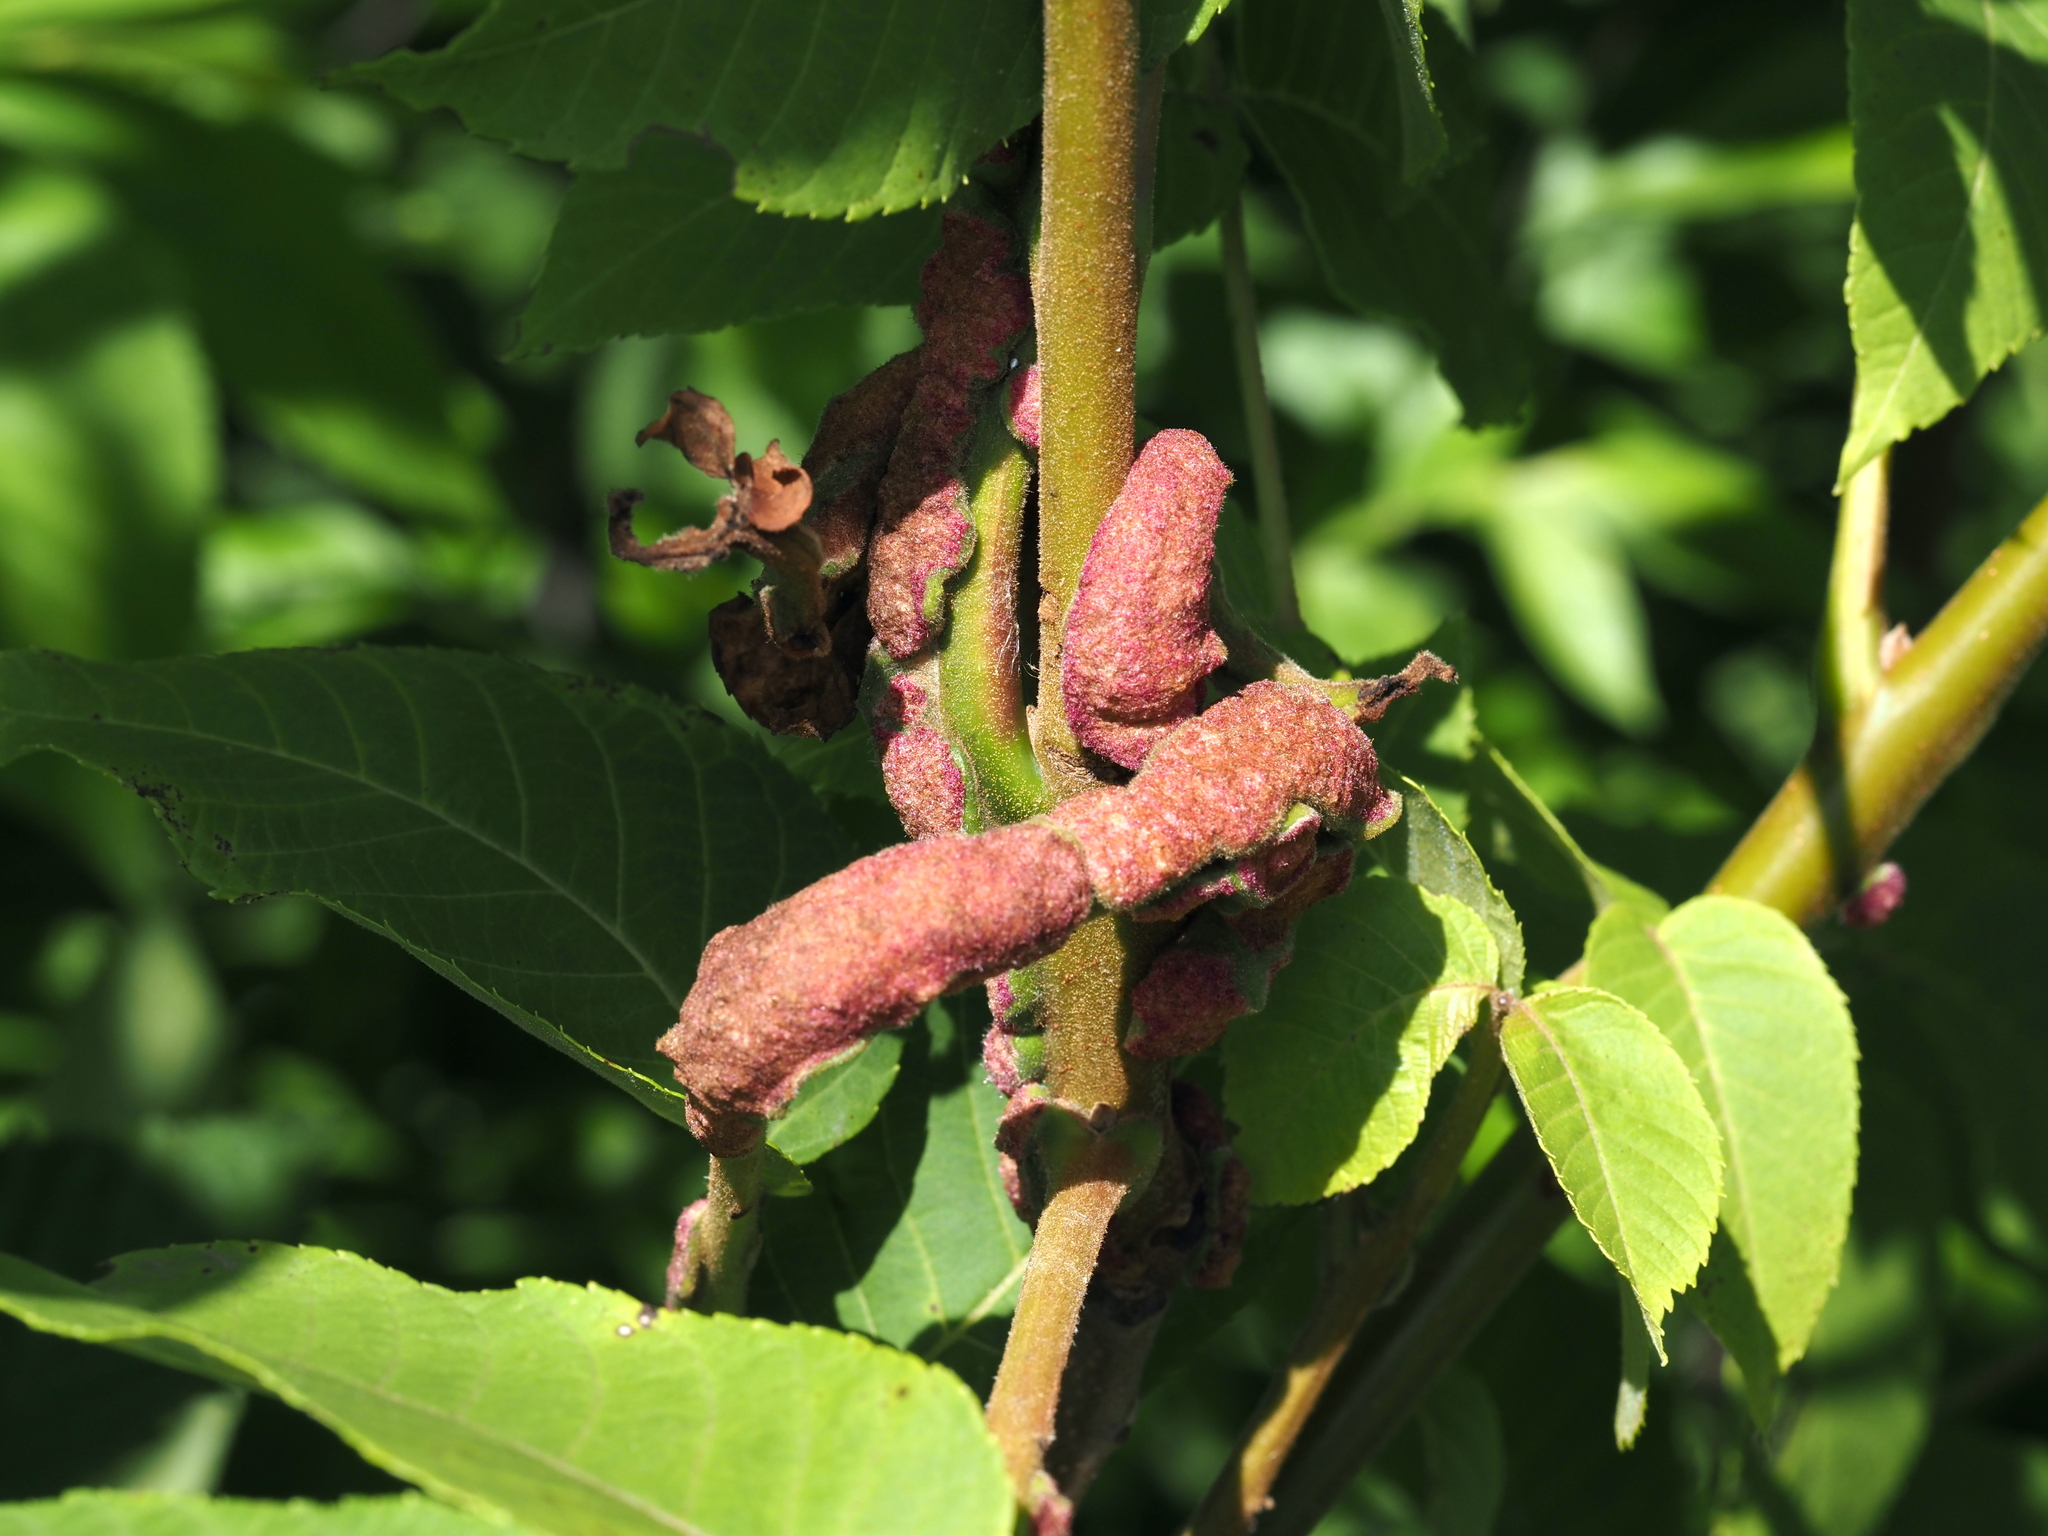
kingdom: Animalia
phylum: Arthropoda
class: Arachnida
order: Trombidiformes
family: Eriophyidae
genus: Aceria
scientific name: Aceria
